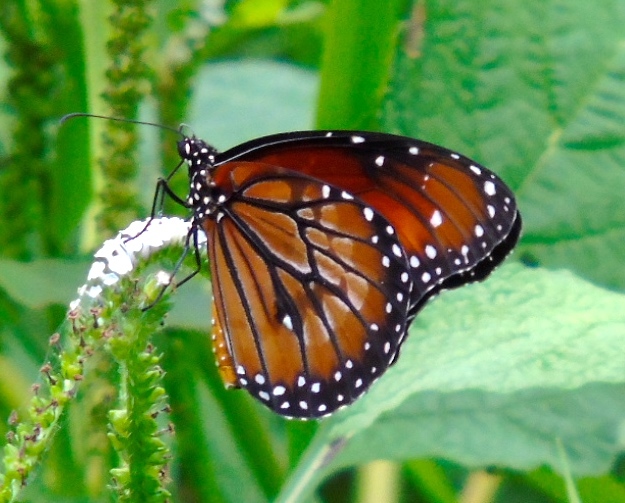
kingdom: Animalia
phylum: Arthropoda
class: Insecta
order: Lepidoptera
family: Nymphalidae
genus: Danaus
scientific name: Danaus eresimus
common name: Soldier
